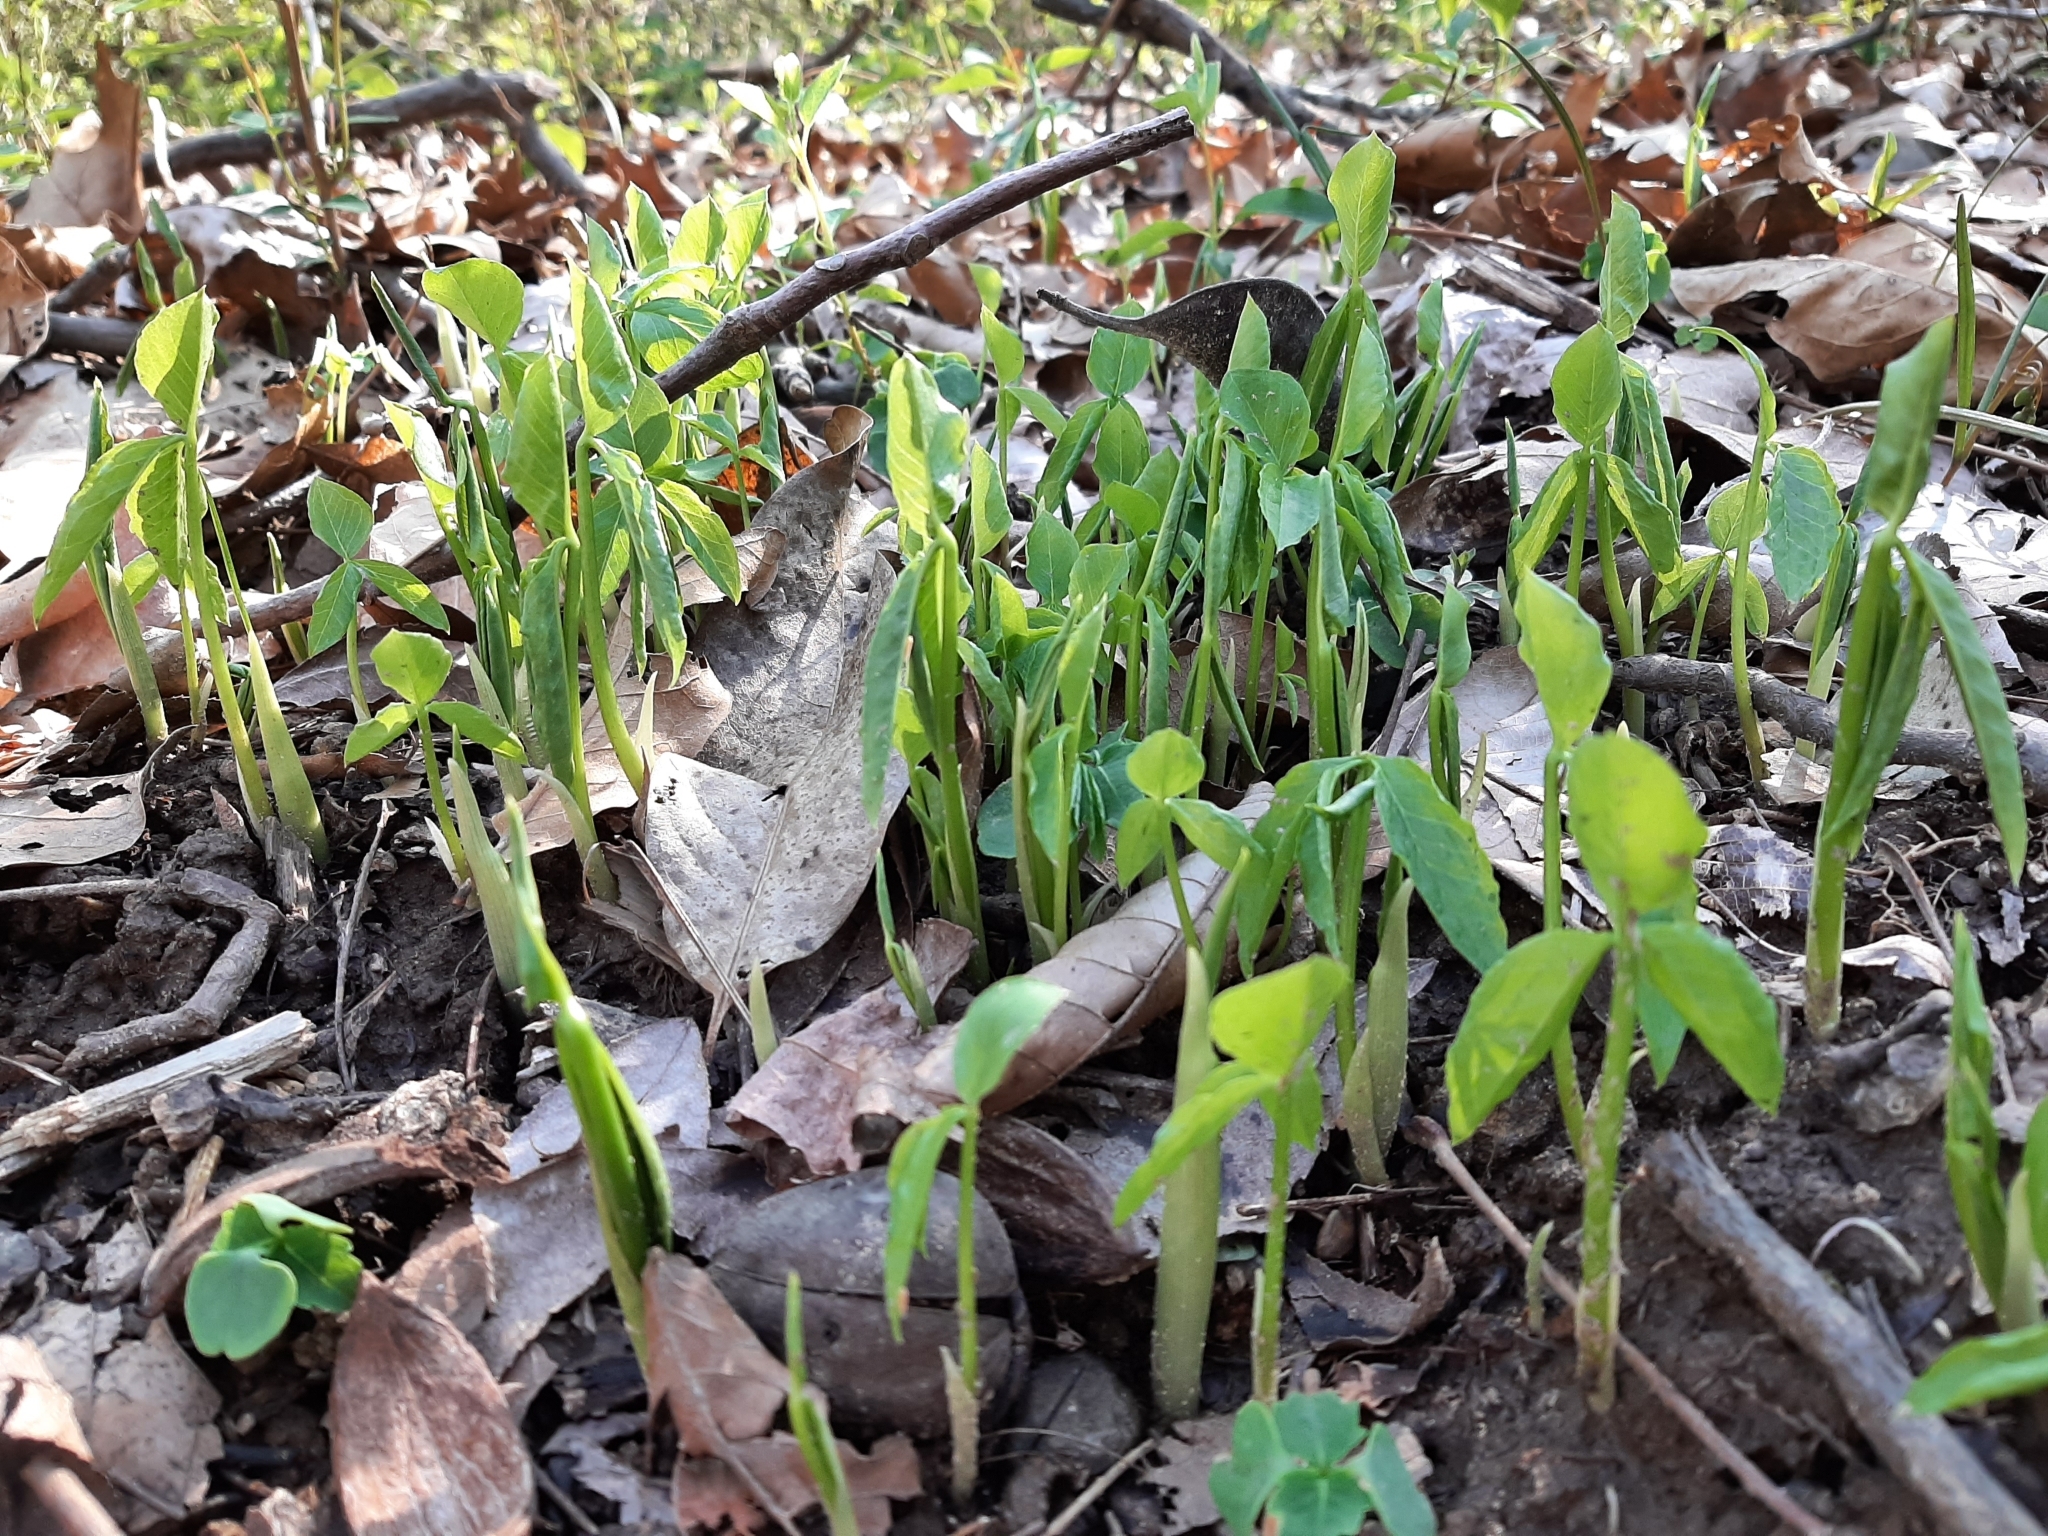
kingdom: Plantae
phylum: Tracheophyta
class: Liliopsida
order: Alismatales
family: Araceae
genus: Arisaema
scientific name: Arisaema triphyllum
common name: Jack-in-the-pulpit
